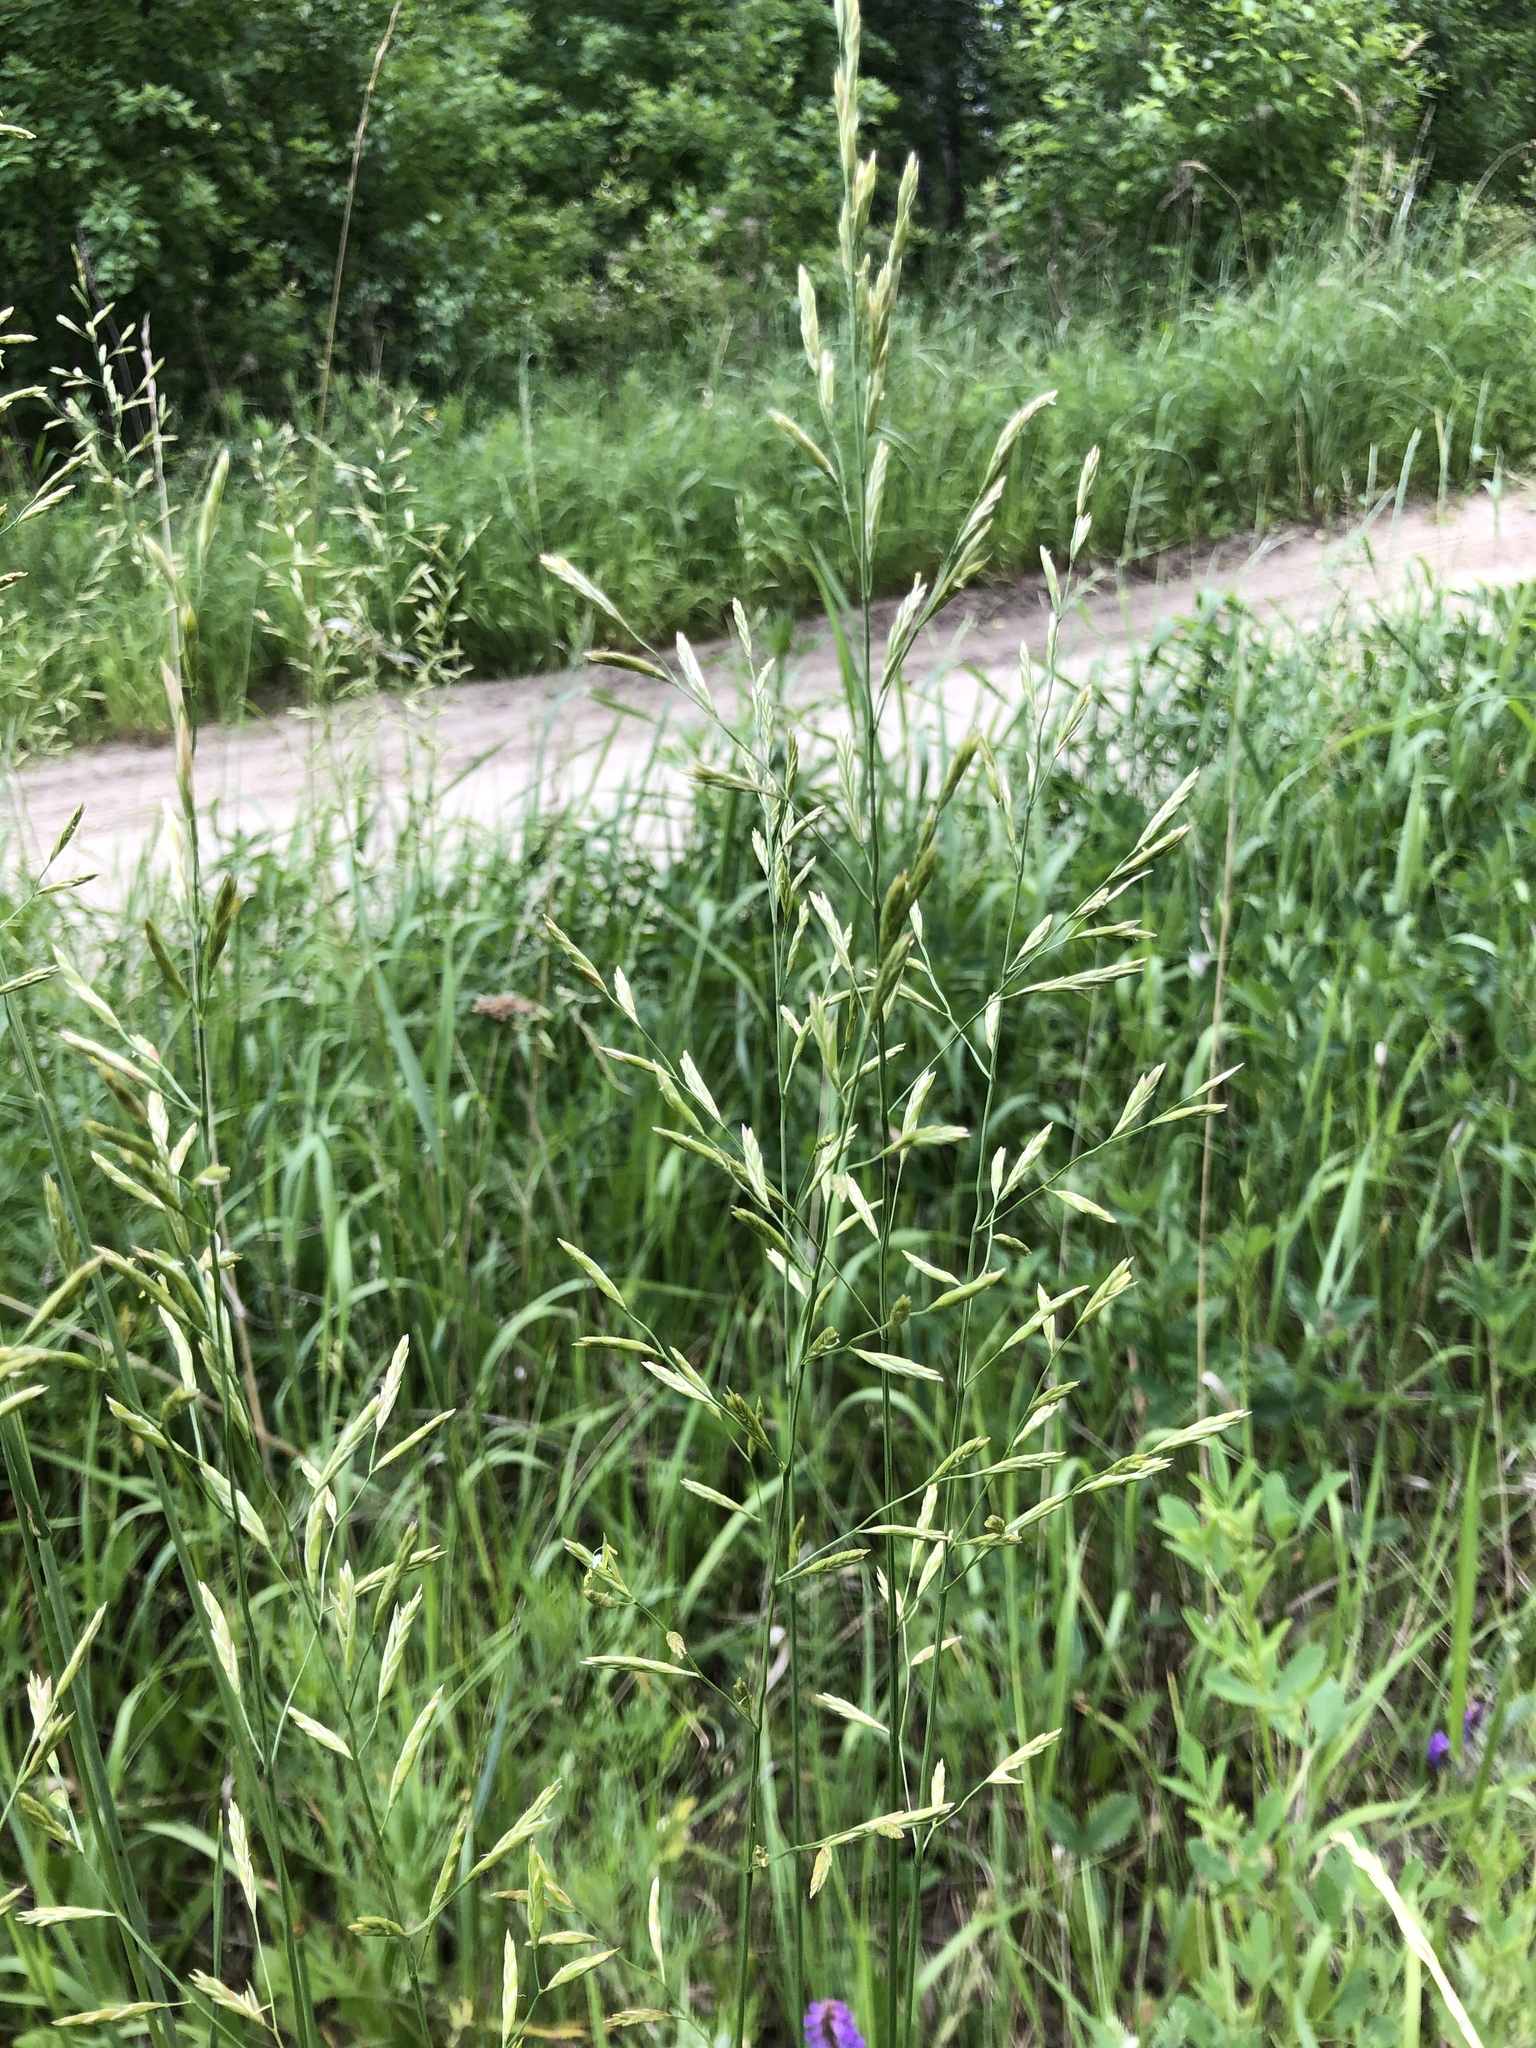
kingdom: Plantae
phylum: Tracheophyta
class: Liliopsida
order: Poales
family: Poaceae
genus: Lolium
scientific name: Lolium pratense
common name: Dover grass
